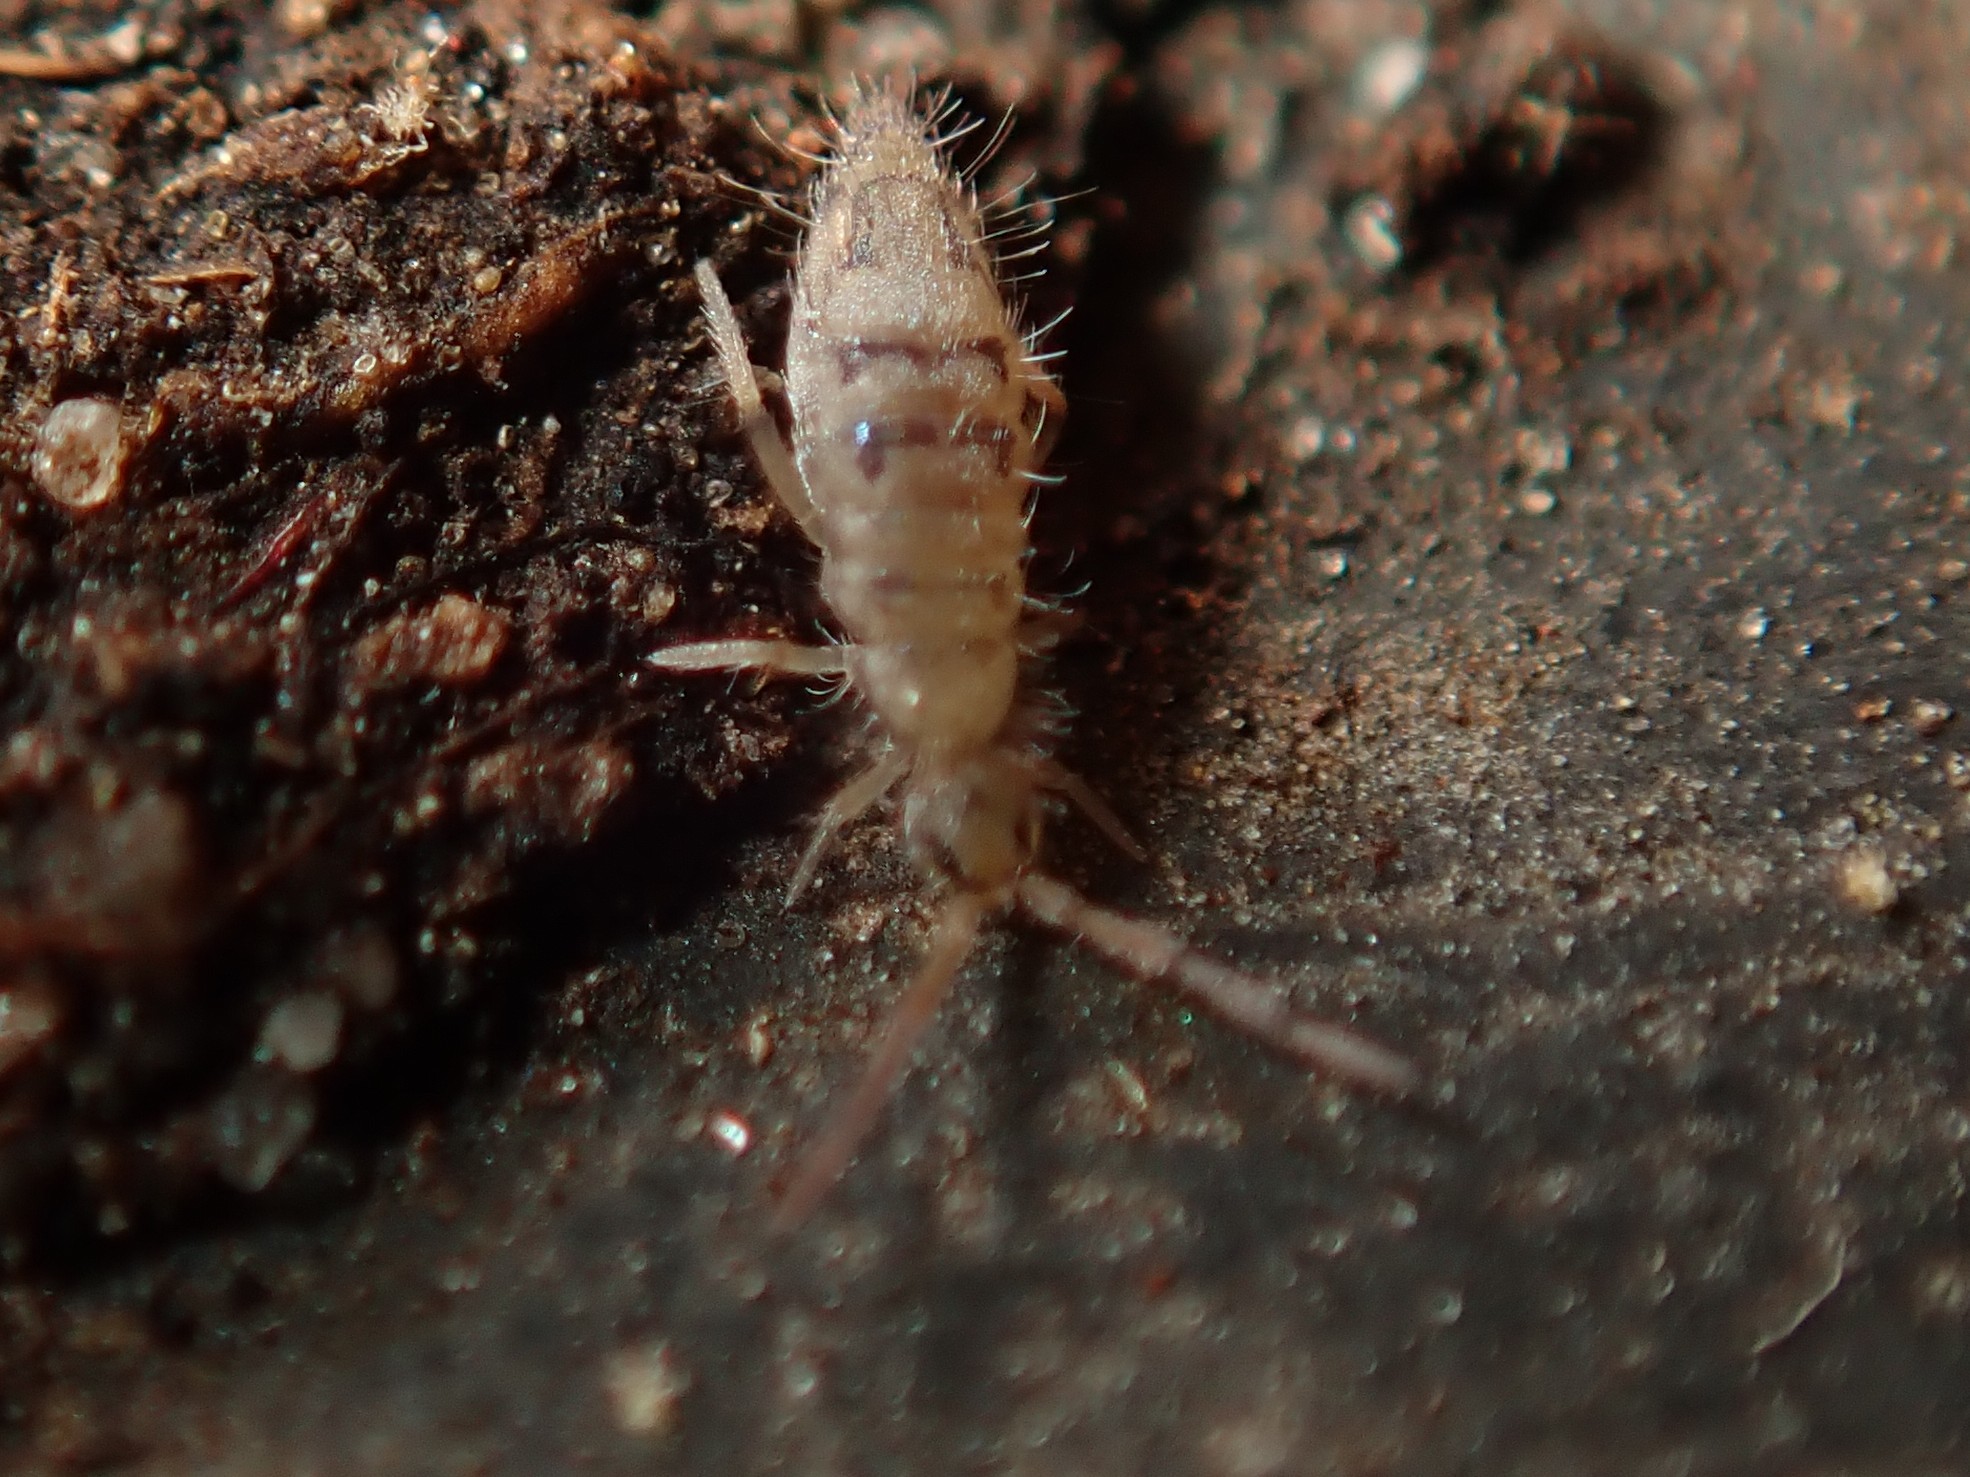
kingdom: Animalia
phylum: Arthropoda
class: Collembola
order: Entomobryomorpha
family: Entomobryidae
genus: Entomobrya
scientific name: Entomobrya nivalis
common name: Cosmopolitan springtail
